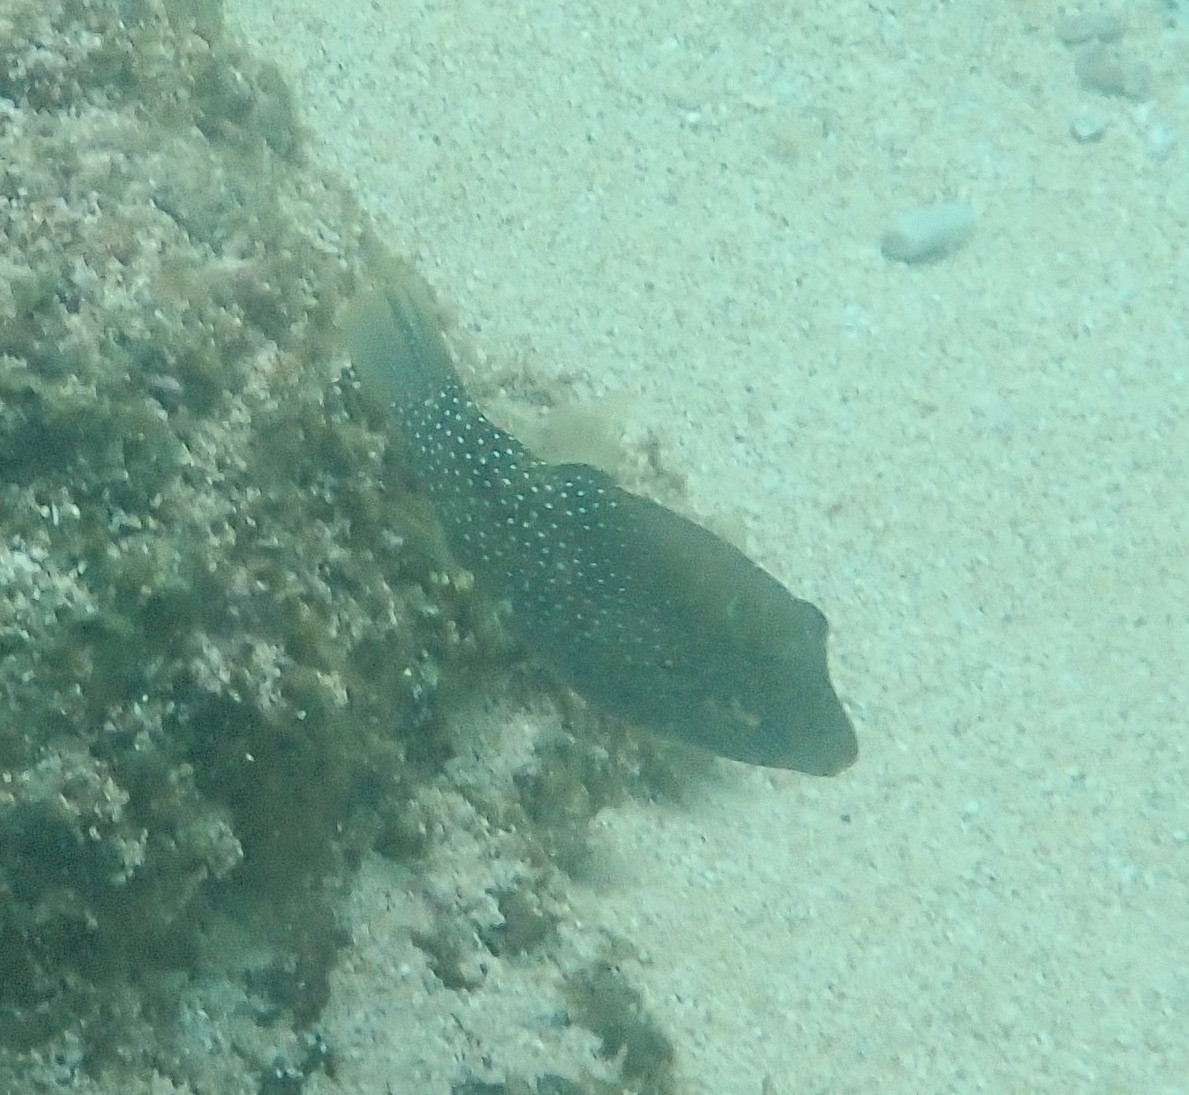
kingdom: Animalia
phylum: Chordata
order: Tetraodontiformes
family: Tetraodontidae
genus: Canthigaster
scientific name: Canthigaster amboinensis
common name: Ambon pufferfish
